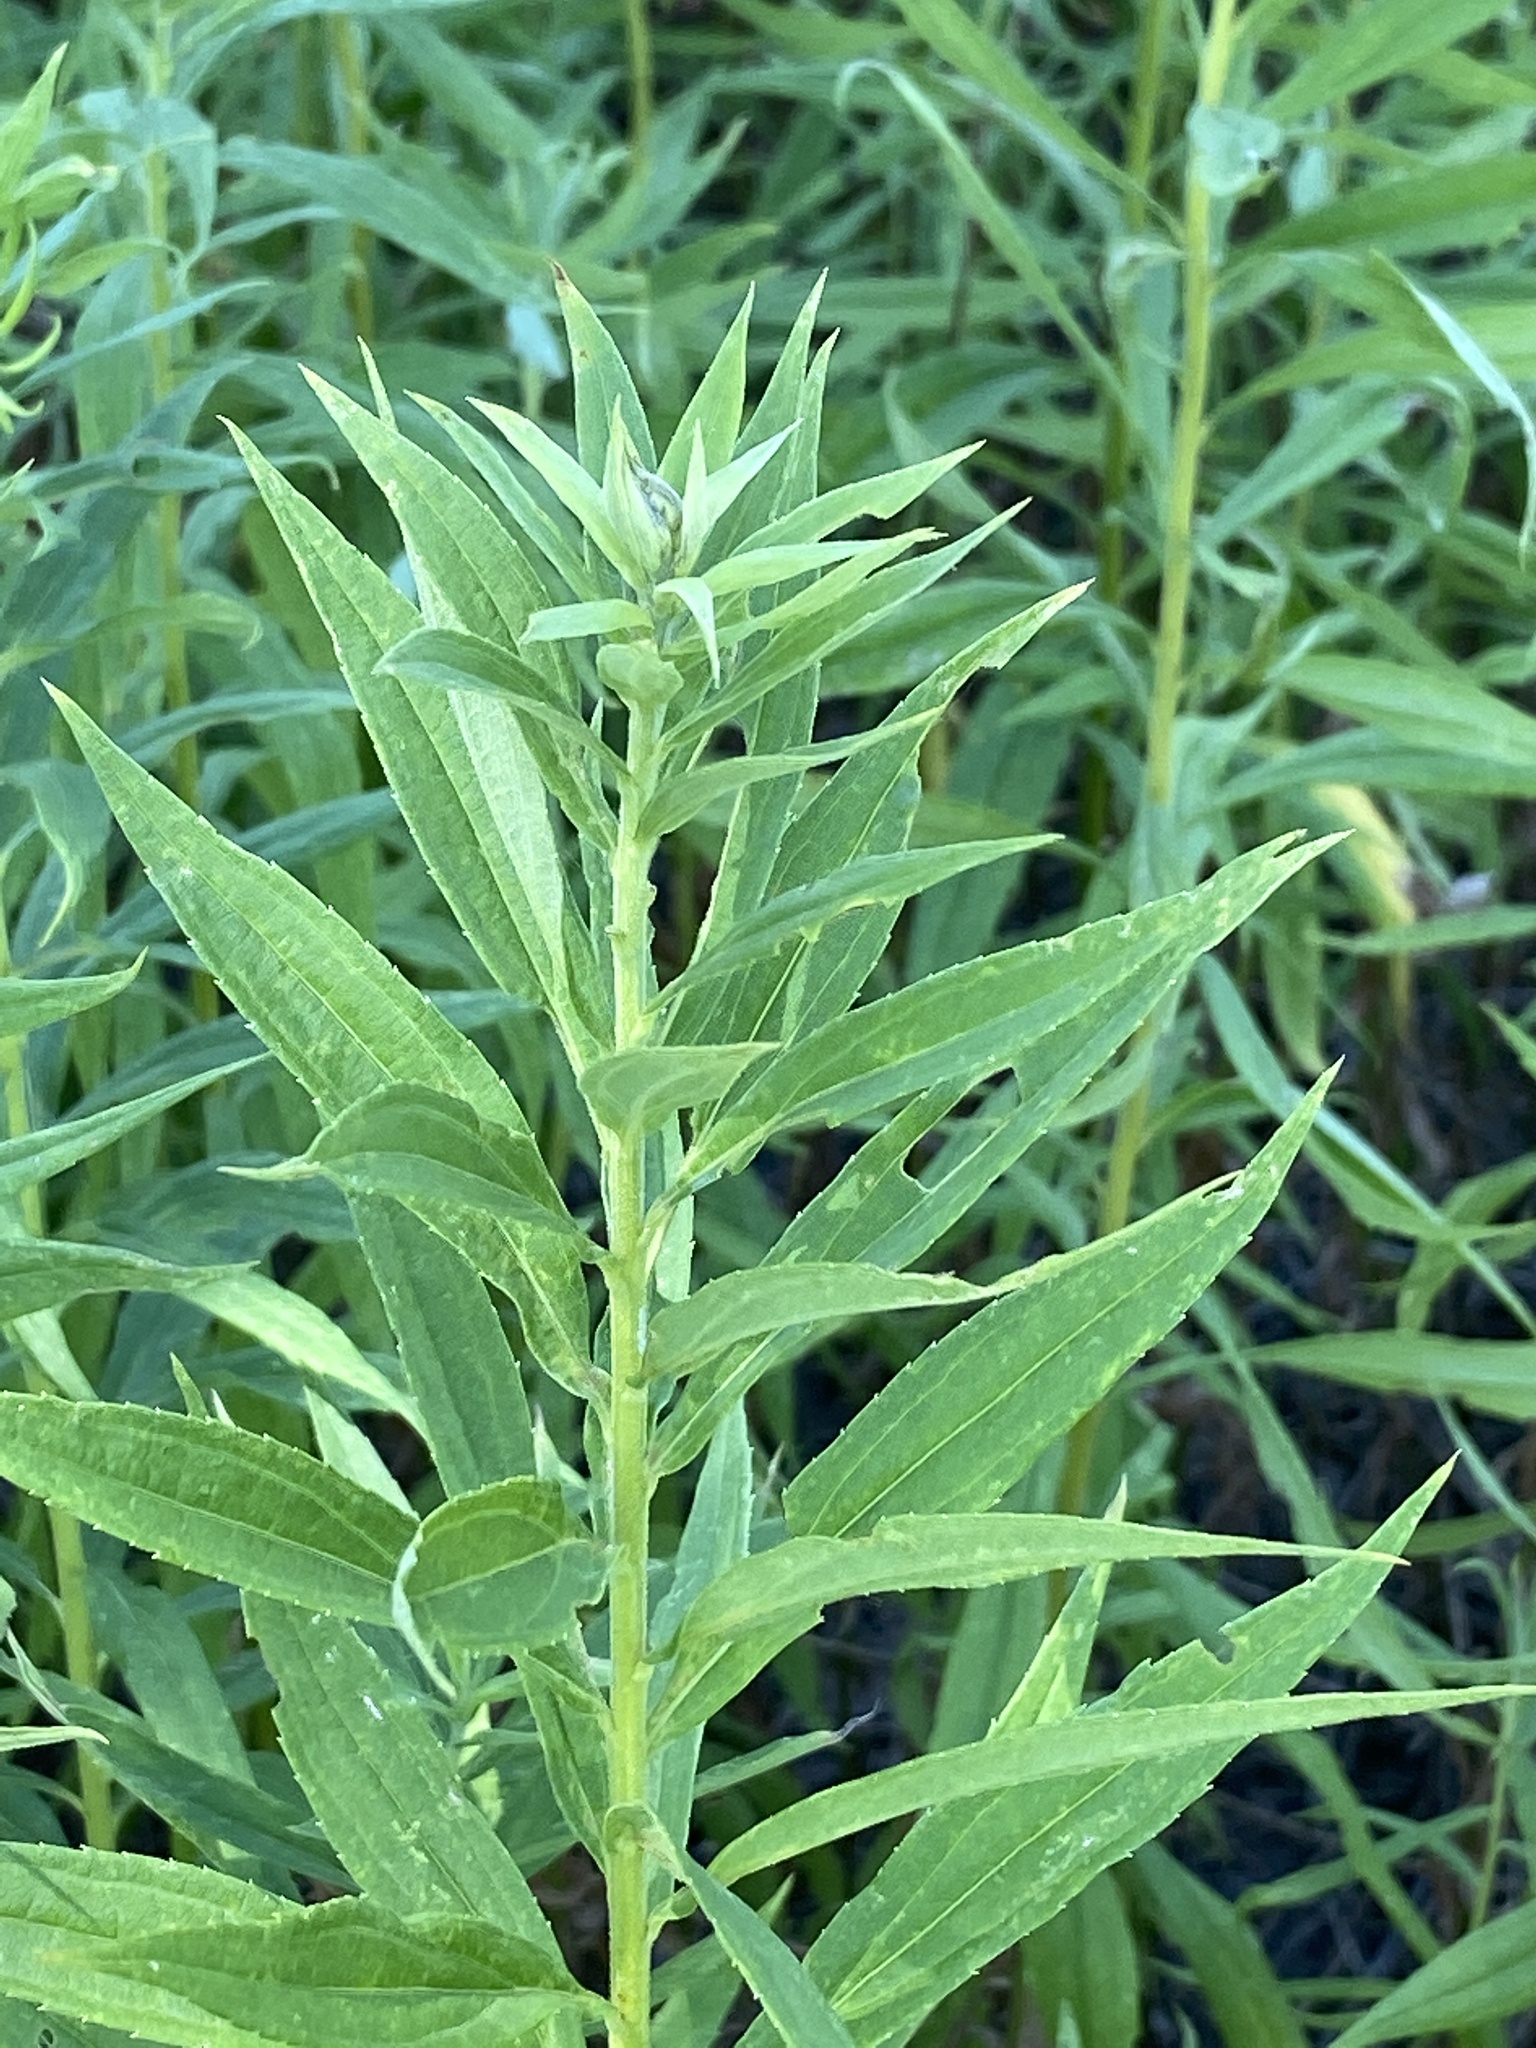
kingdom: Plantae
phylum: Tracheophyta
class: Magnoliopsida
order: Asterales
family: Asteraceae
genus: Solidago
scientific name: Solidago altissima
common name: Late goldenrod
